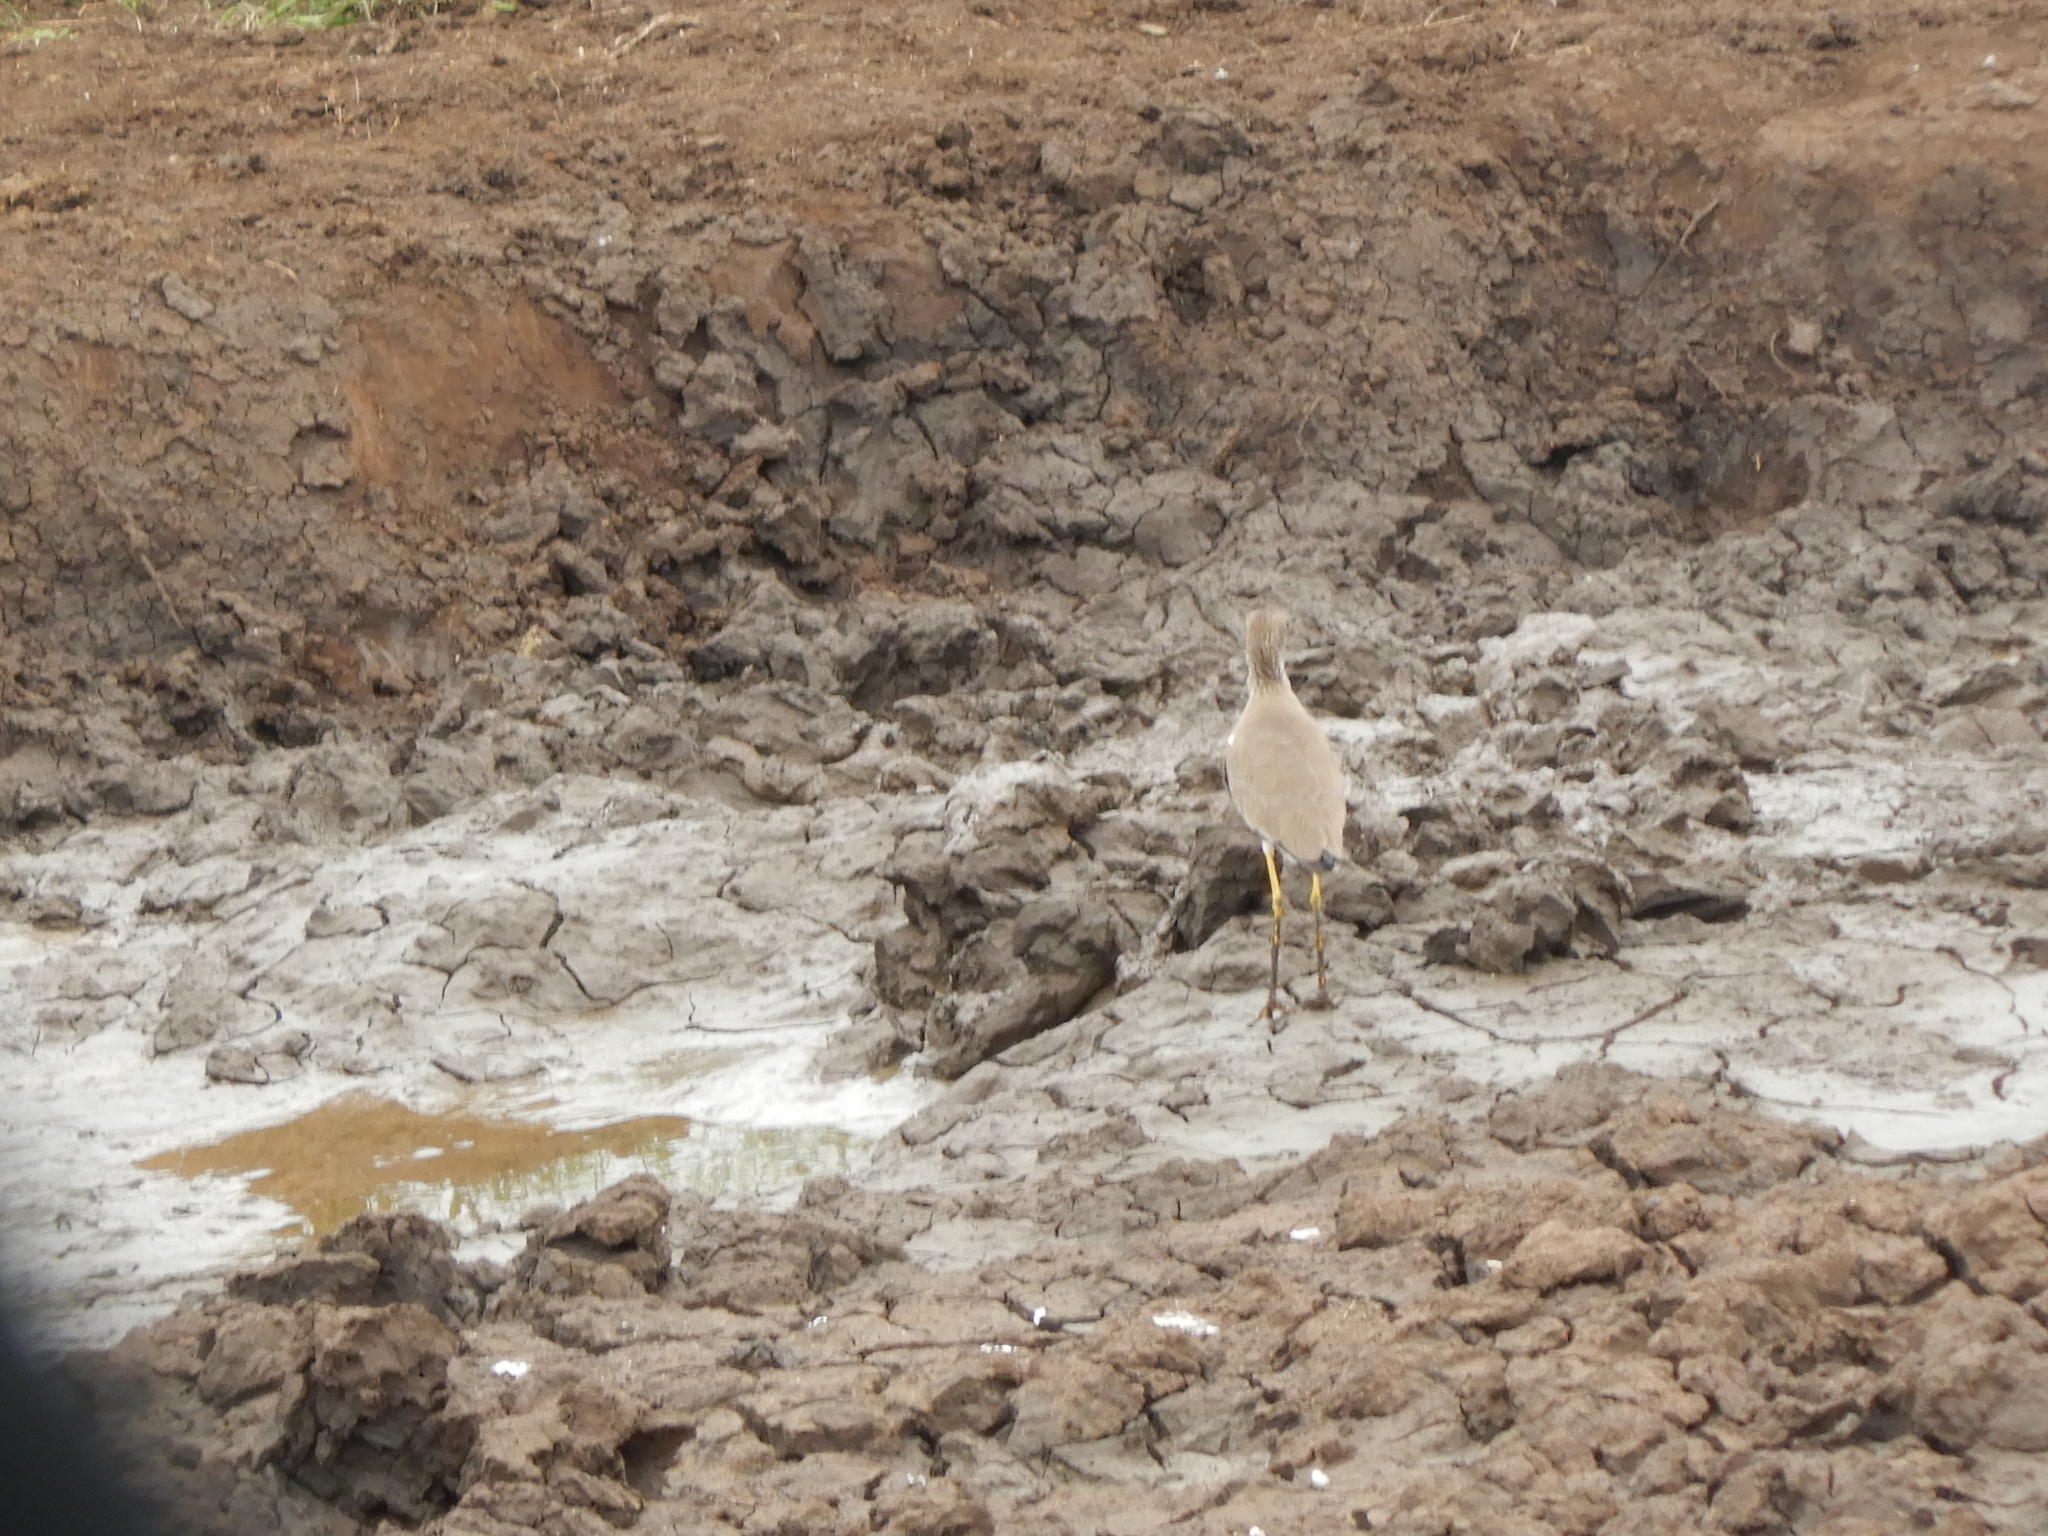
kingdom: Animalia
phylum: Chordata
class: Aves
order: Charadriiformes
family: Charadriidae
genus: Vanellus
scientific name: Vanellus senegallus
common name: African wattled lapwing
